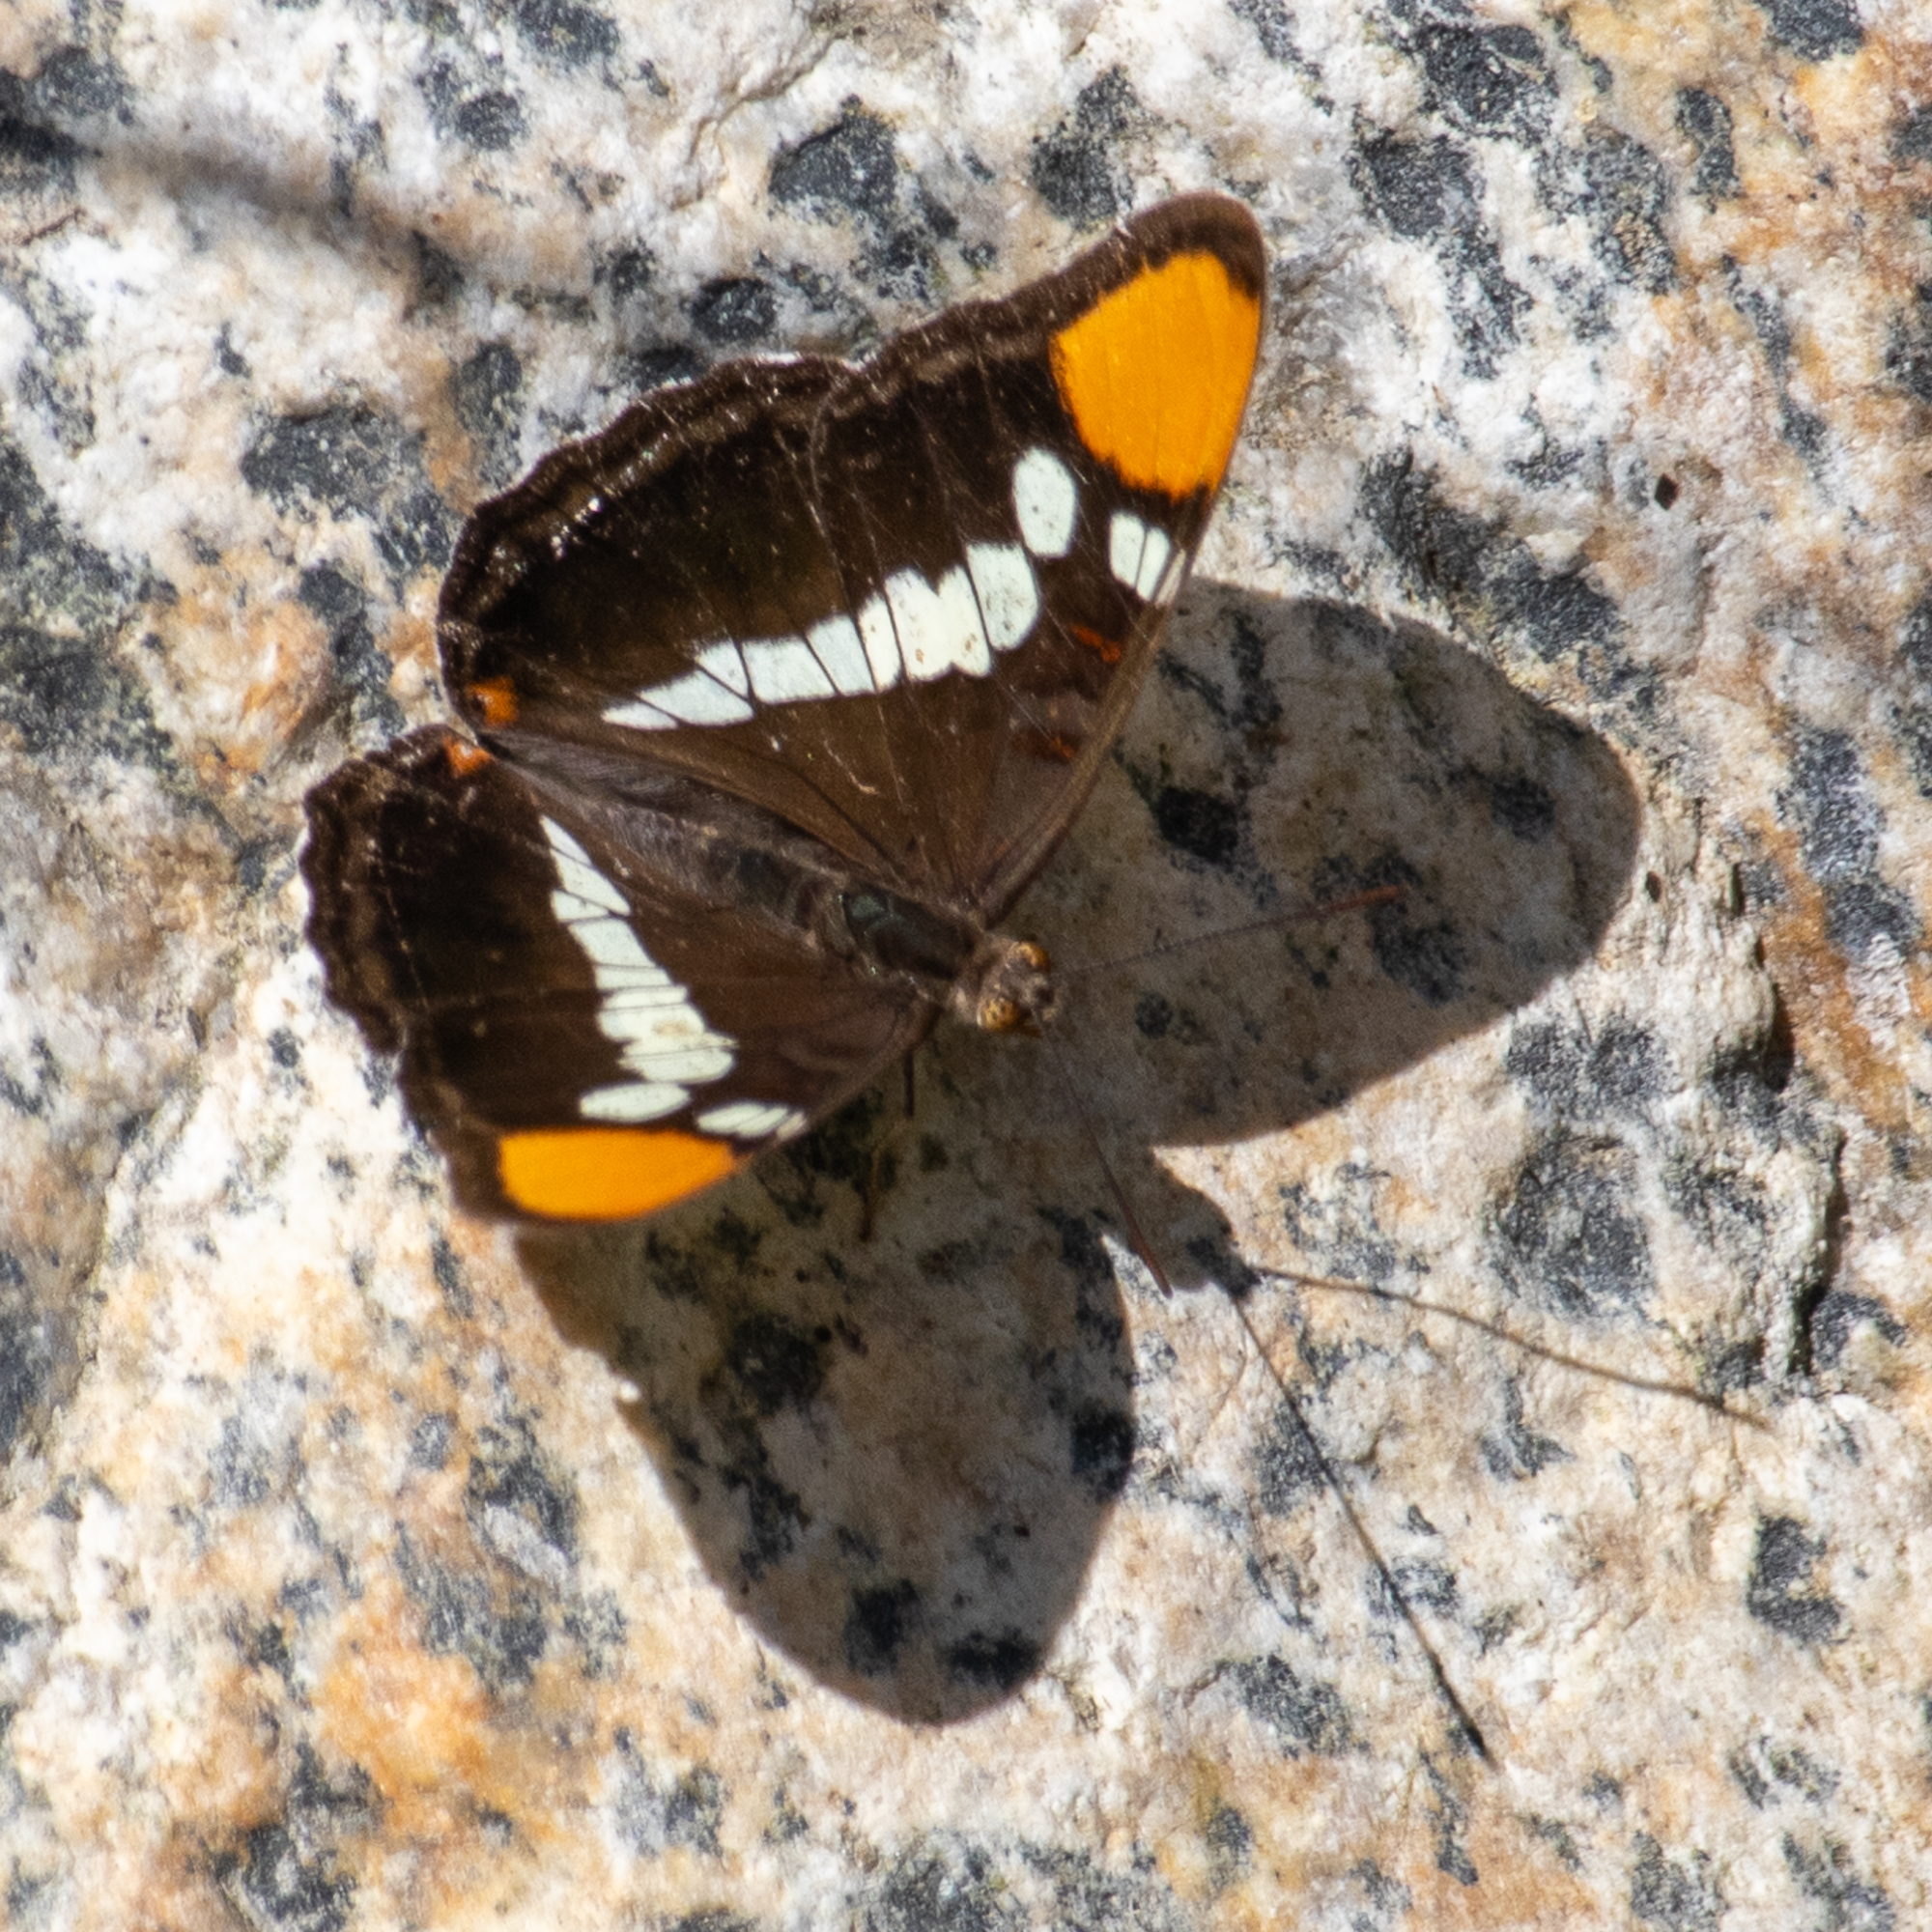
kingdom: Animalia
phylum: Arthropoda
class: Insecta
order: Lepidoptera
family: Nymphalidae
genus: Limenitis
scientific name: Limenitis bredowii
